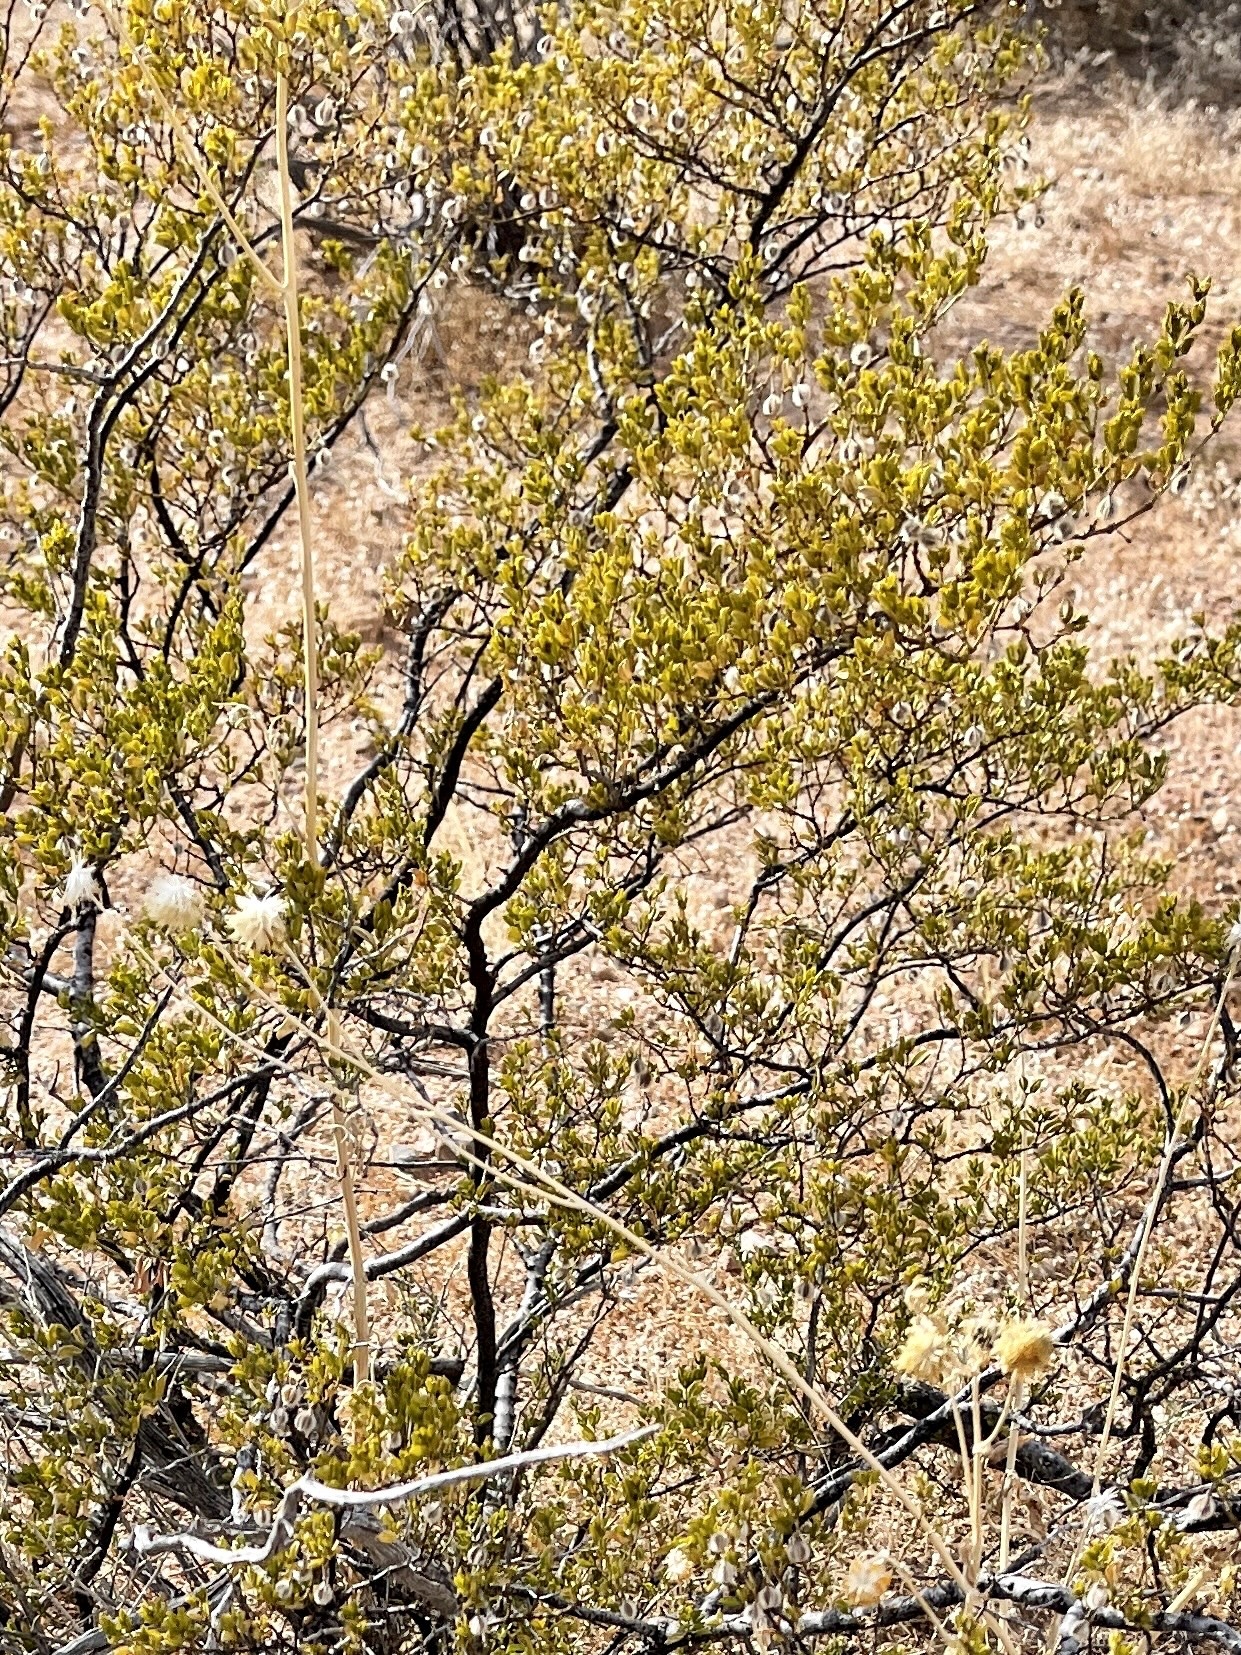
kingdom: Plantae
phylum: Tracheophyta
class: Magnoliopsida
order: Zygophyllales
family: Zygophyllaceae
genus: Larrea
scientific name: Larrea tridentata
